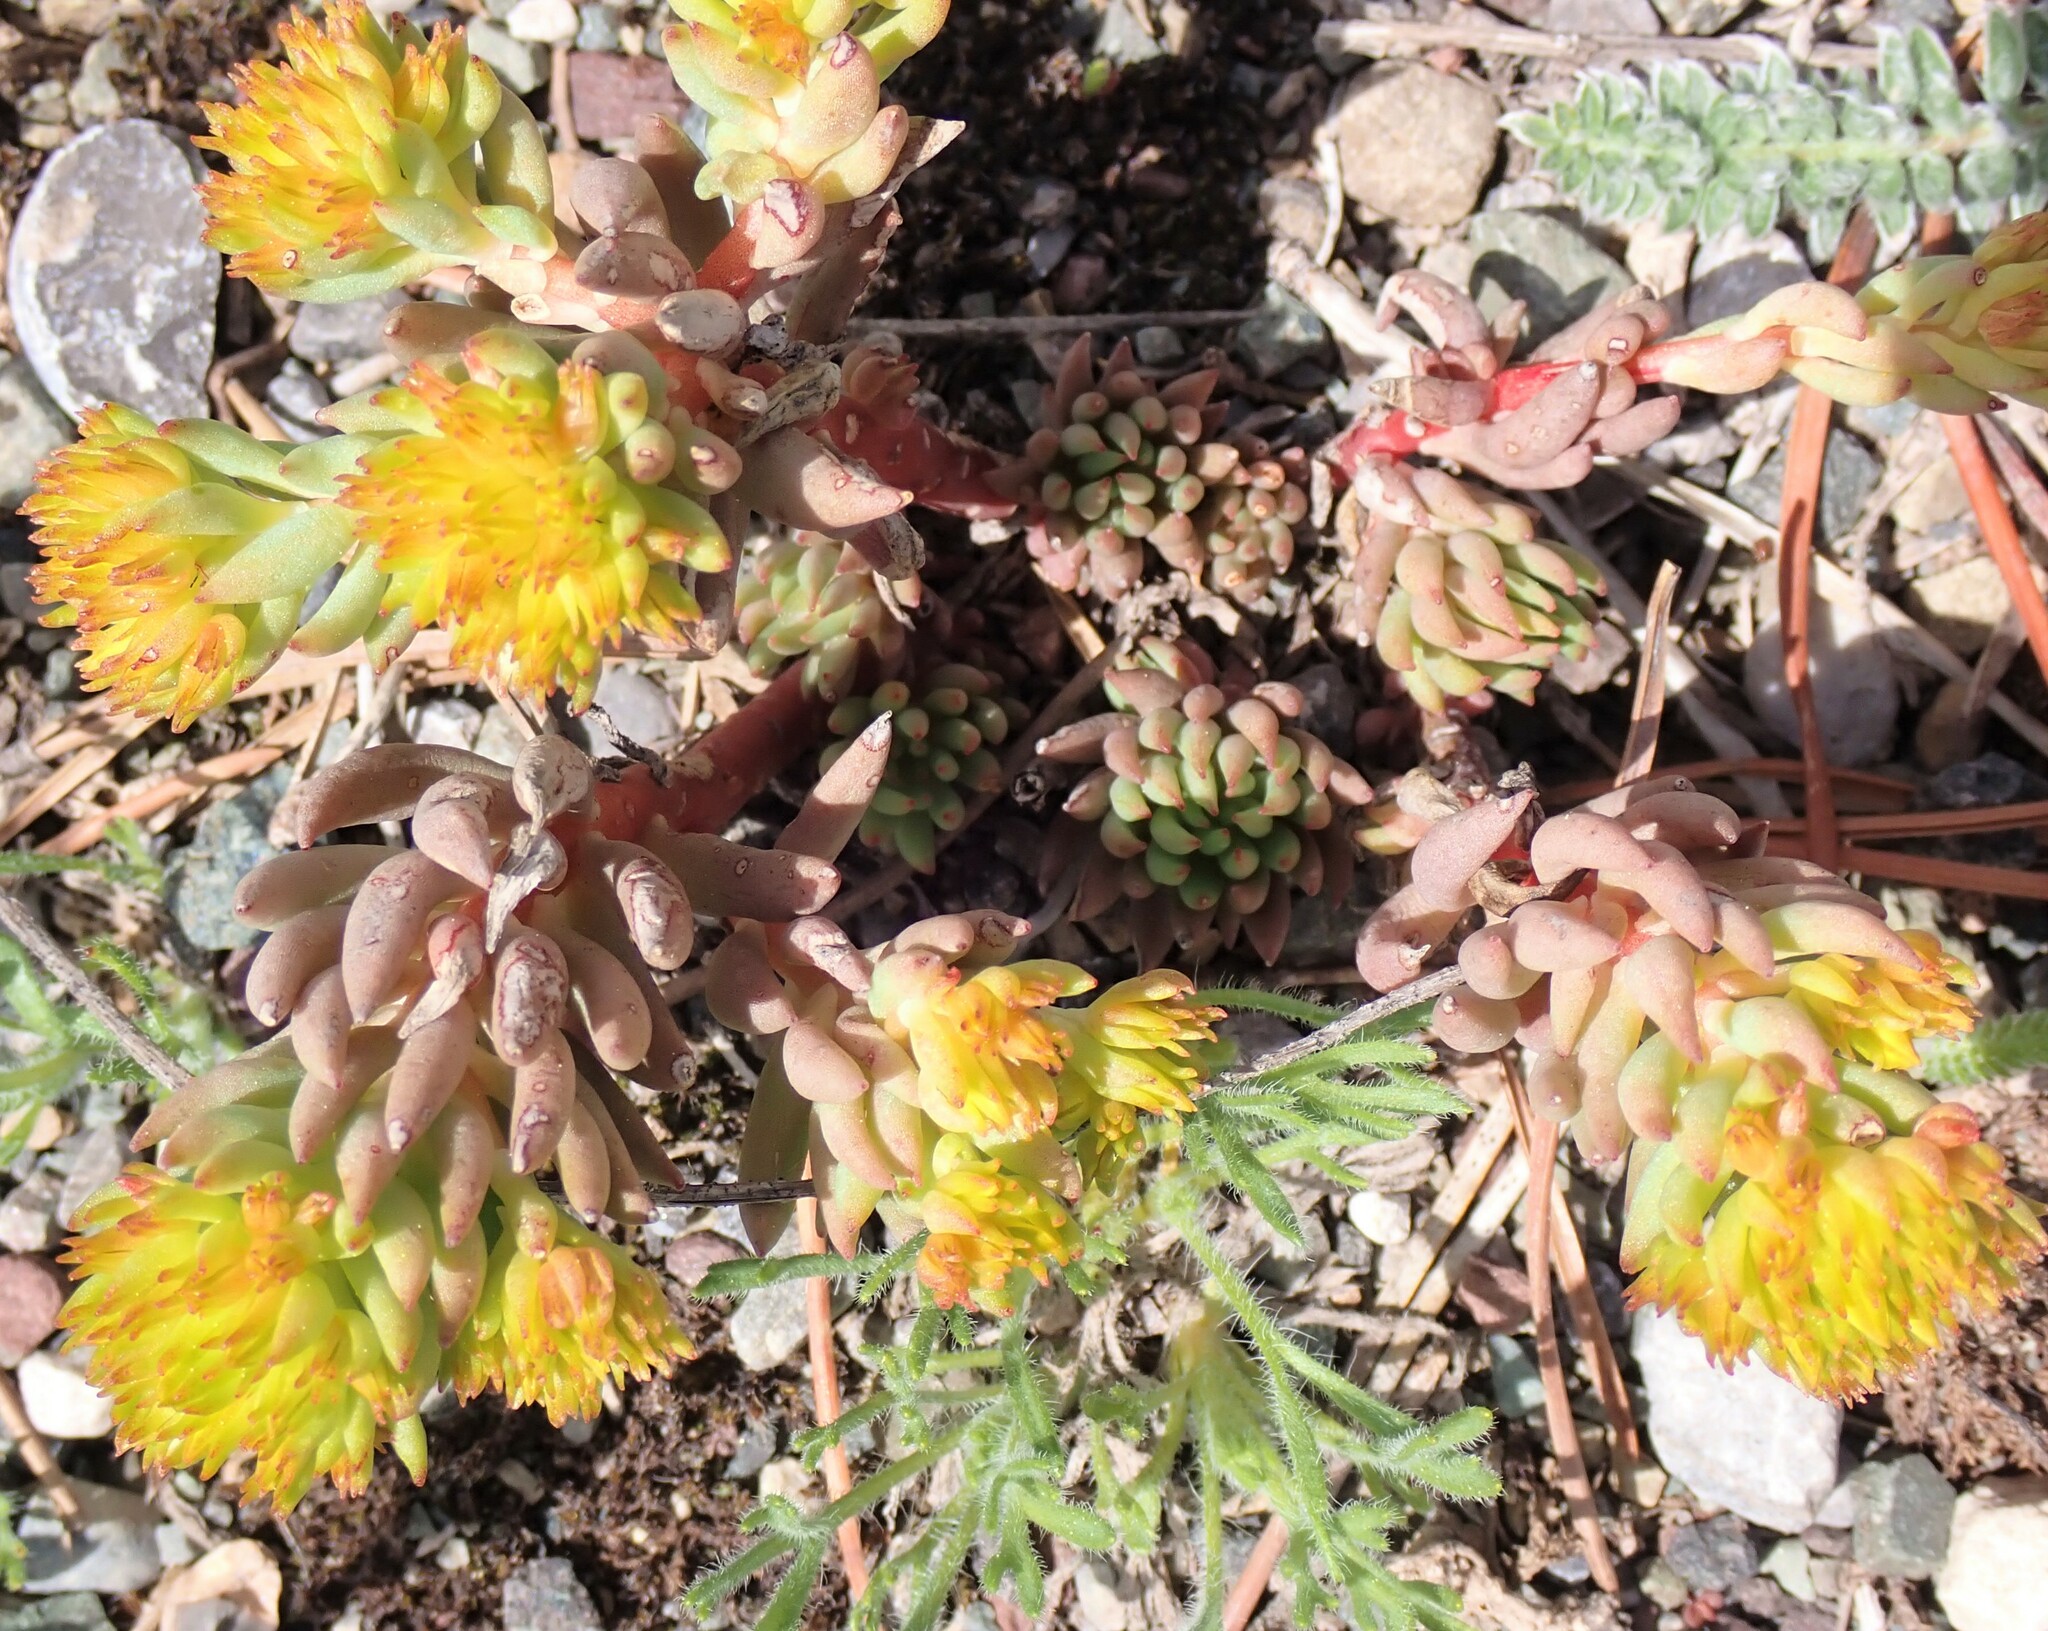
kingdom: Plantae
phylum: Tracheophyta
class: Magnoliopsida
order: Saxifragales
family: Crassulaceae
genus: Sedum
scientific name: Sedum lanceolatum
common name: Common stonecrop
